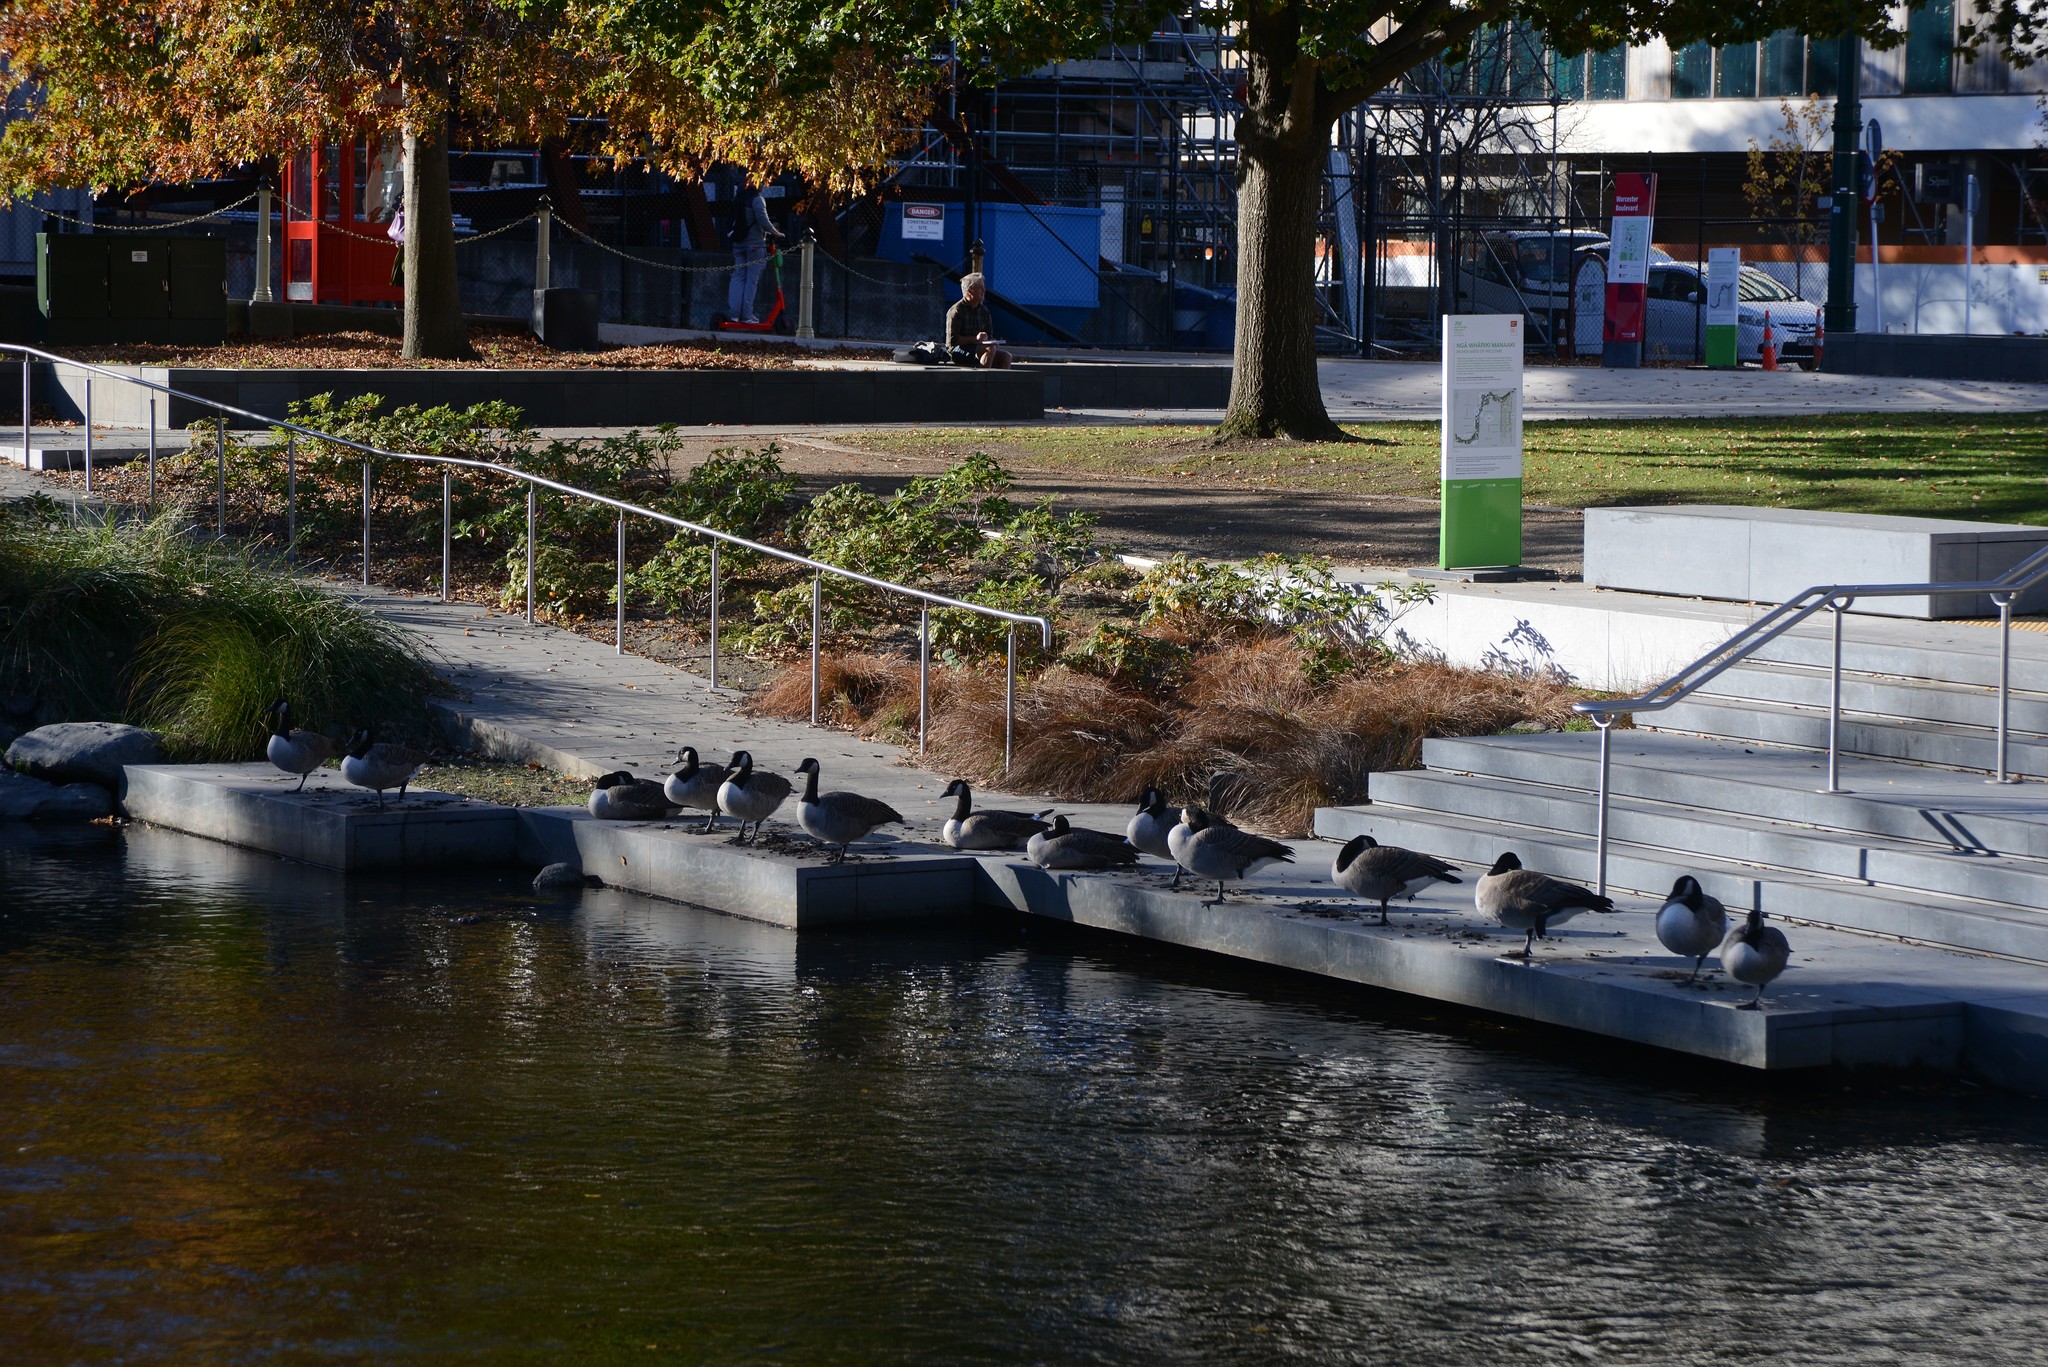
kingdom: Animalia
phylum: Chordata
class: Aves
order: Anseriformes
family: Anatidae
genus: Branta
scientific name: Branta canadensis
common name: Canada goose
